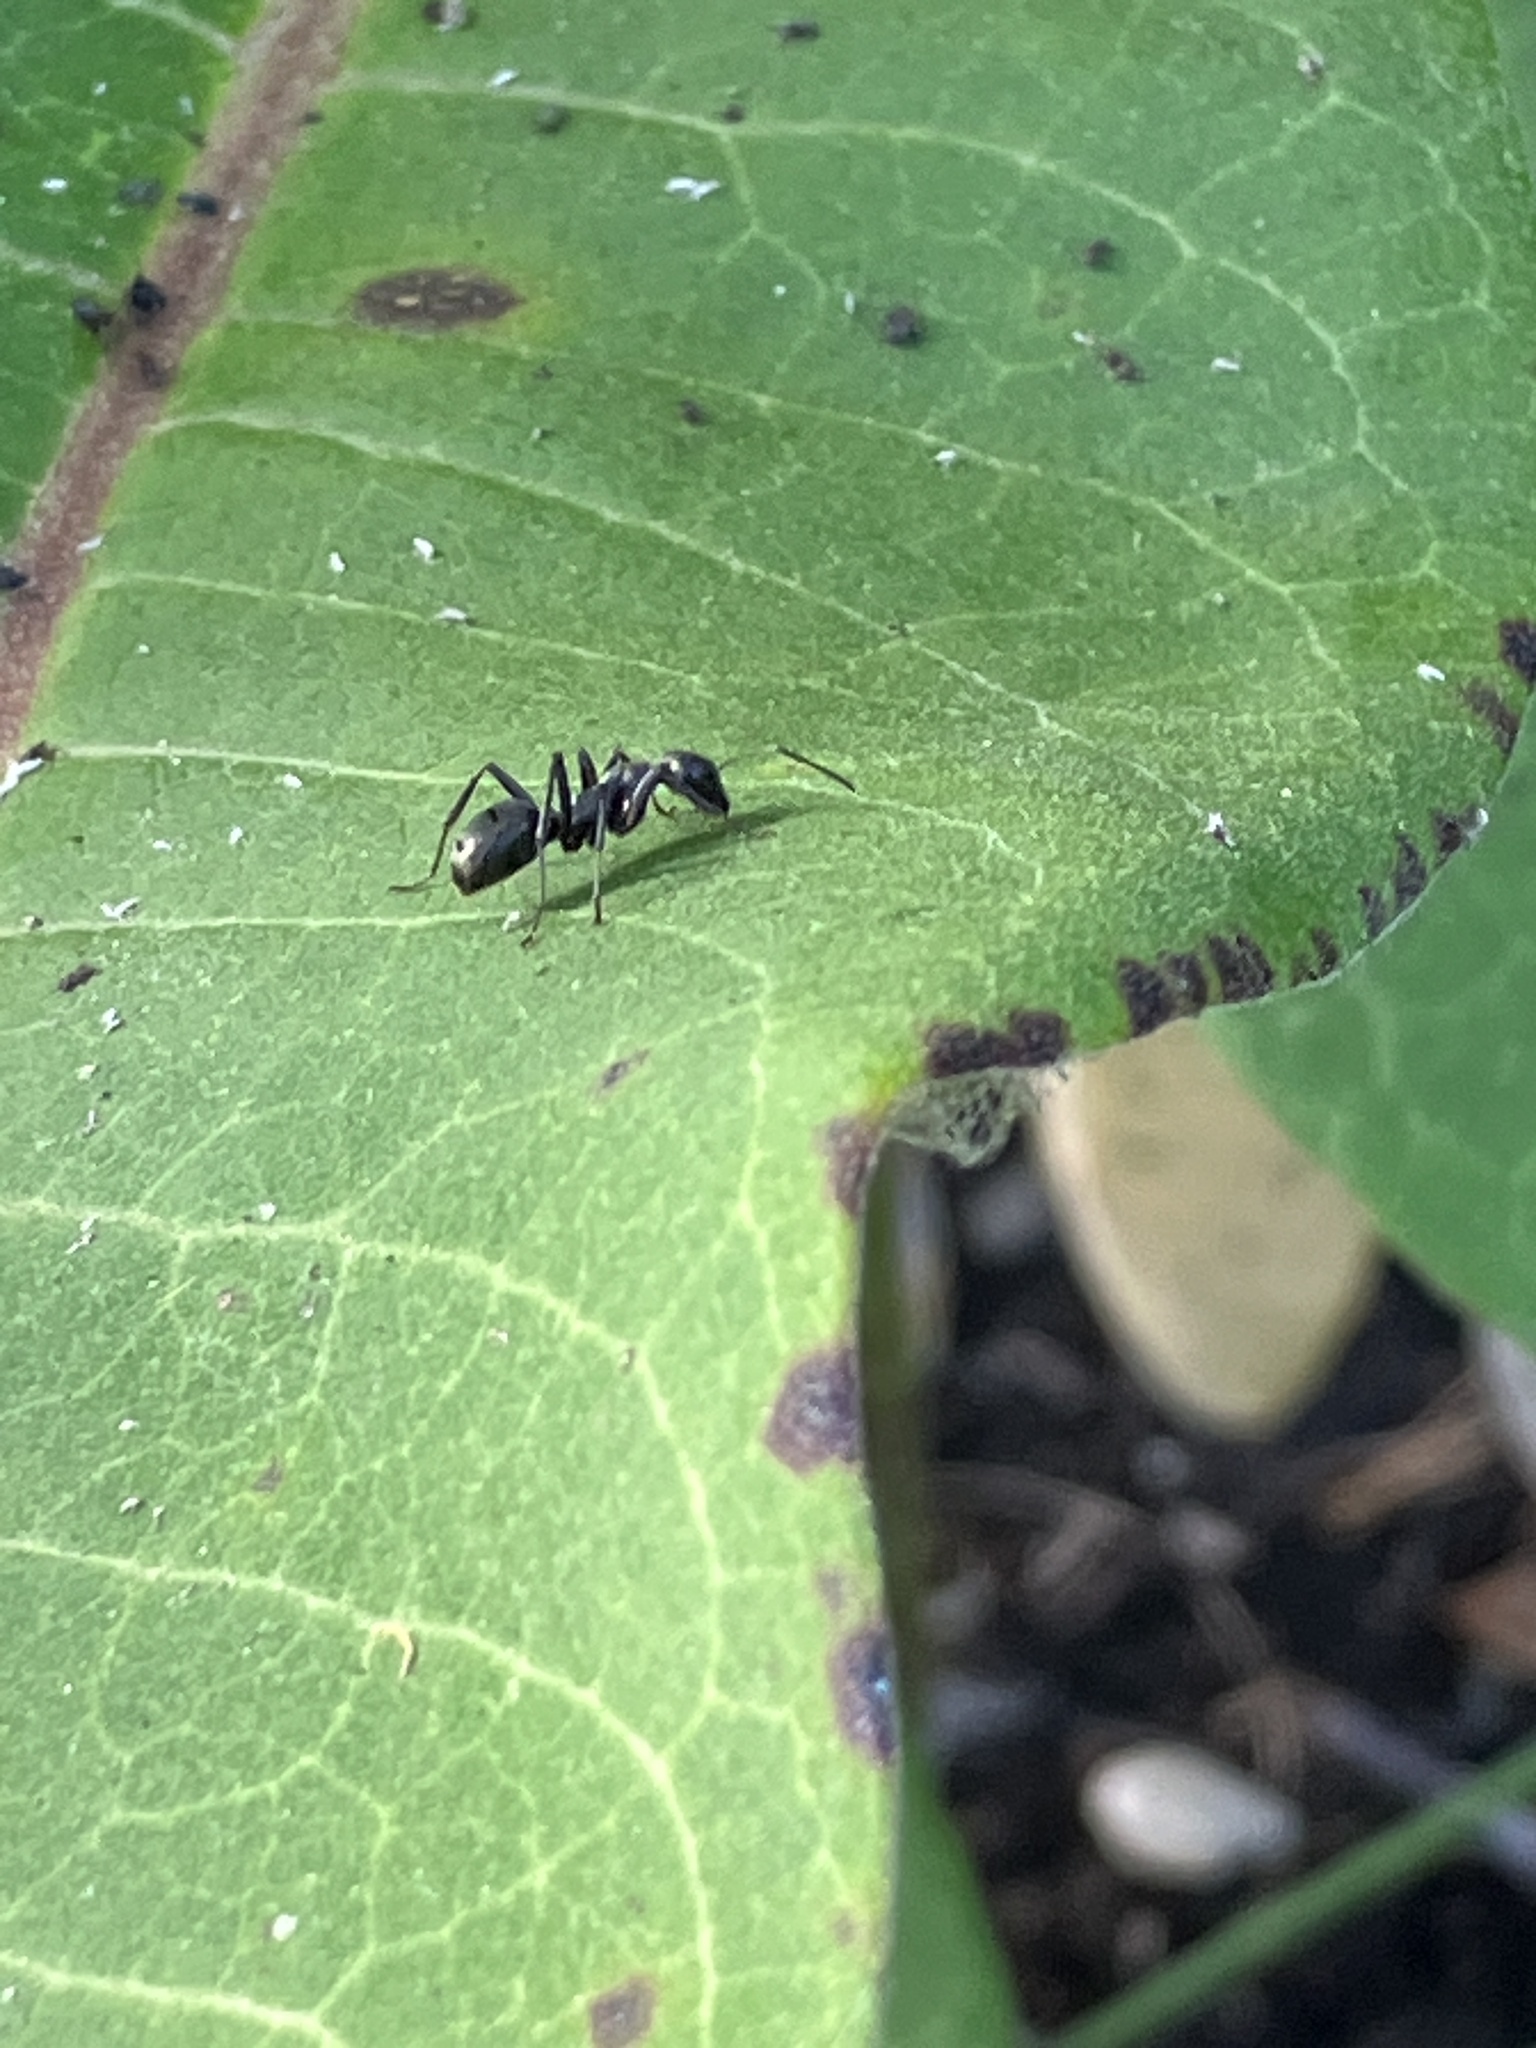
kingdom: Animalia
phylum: Arthropoda
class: Insecta
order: Hymenoptera
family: Formicidae
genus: Formica
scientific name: Formica
